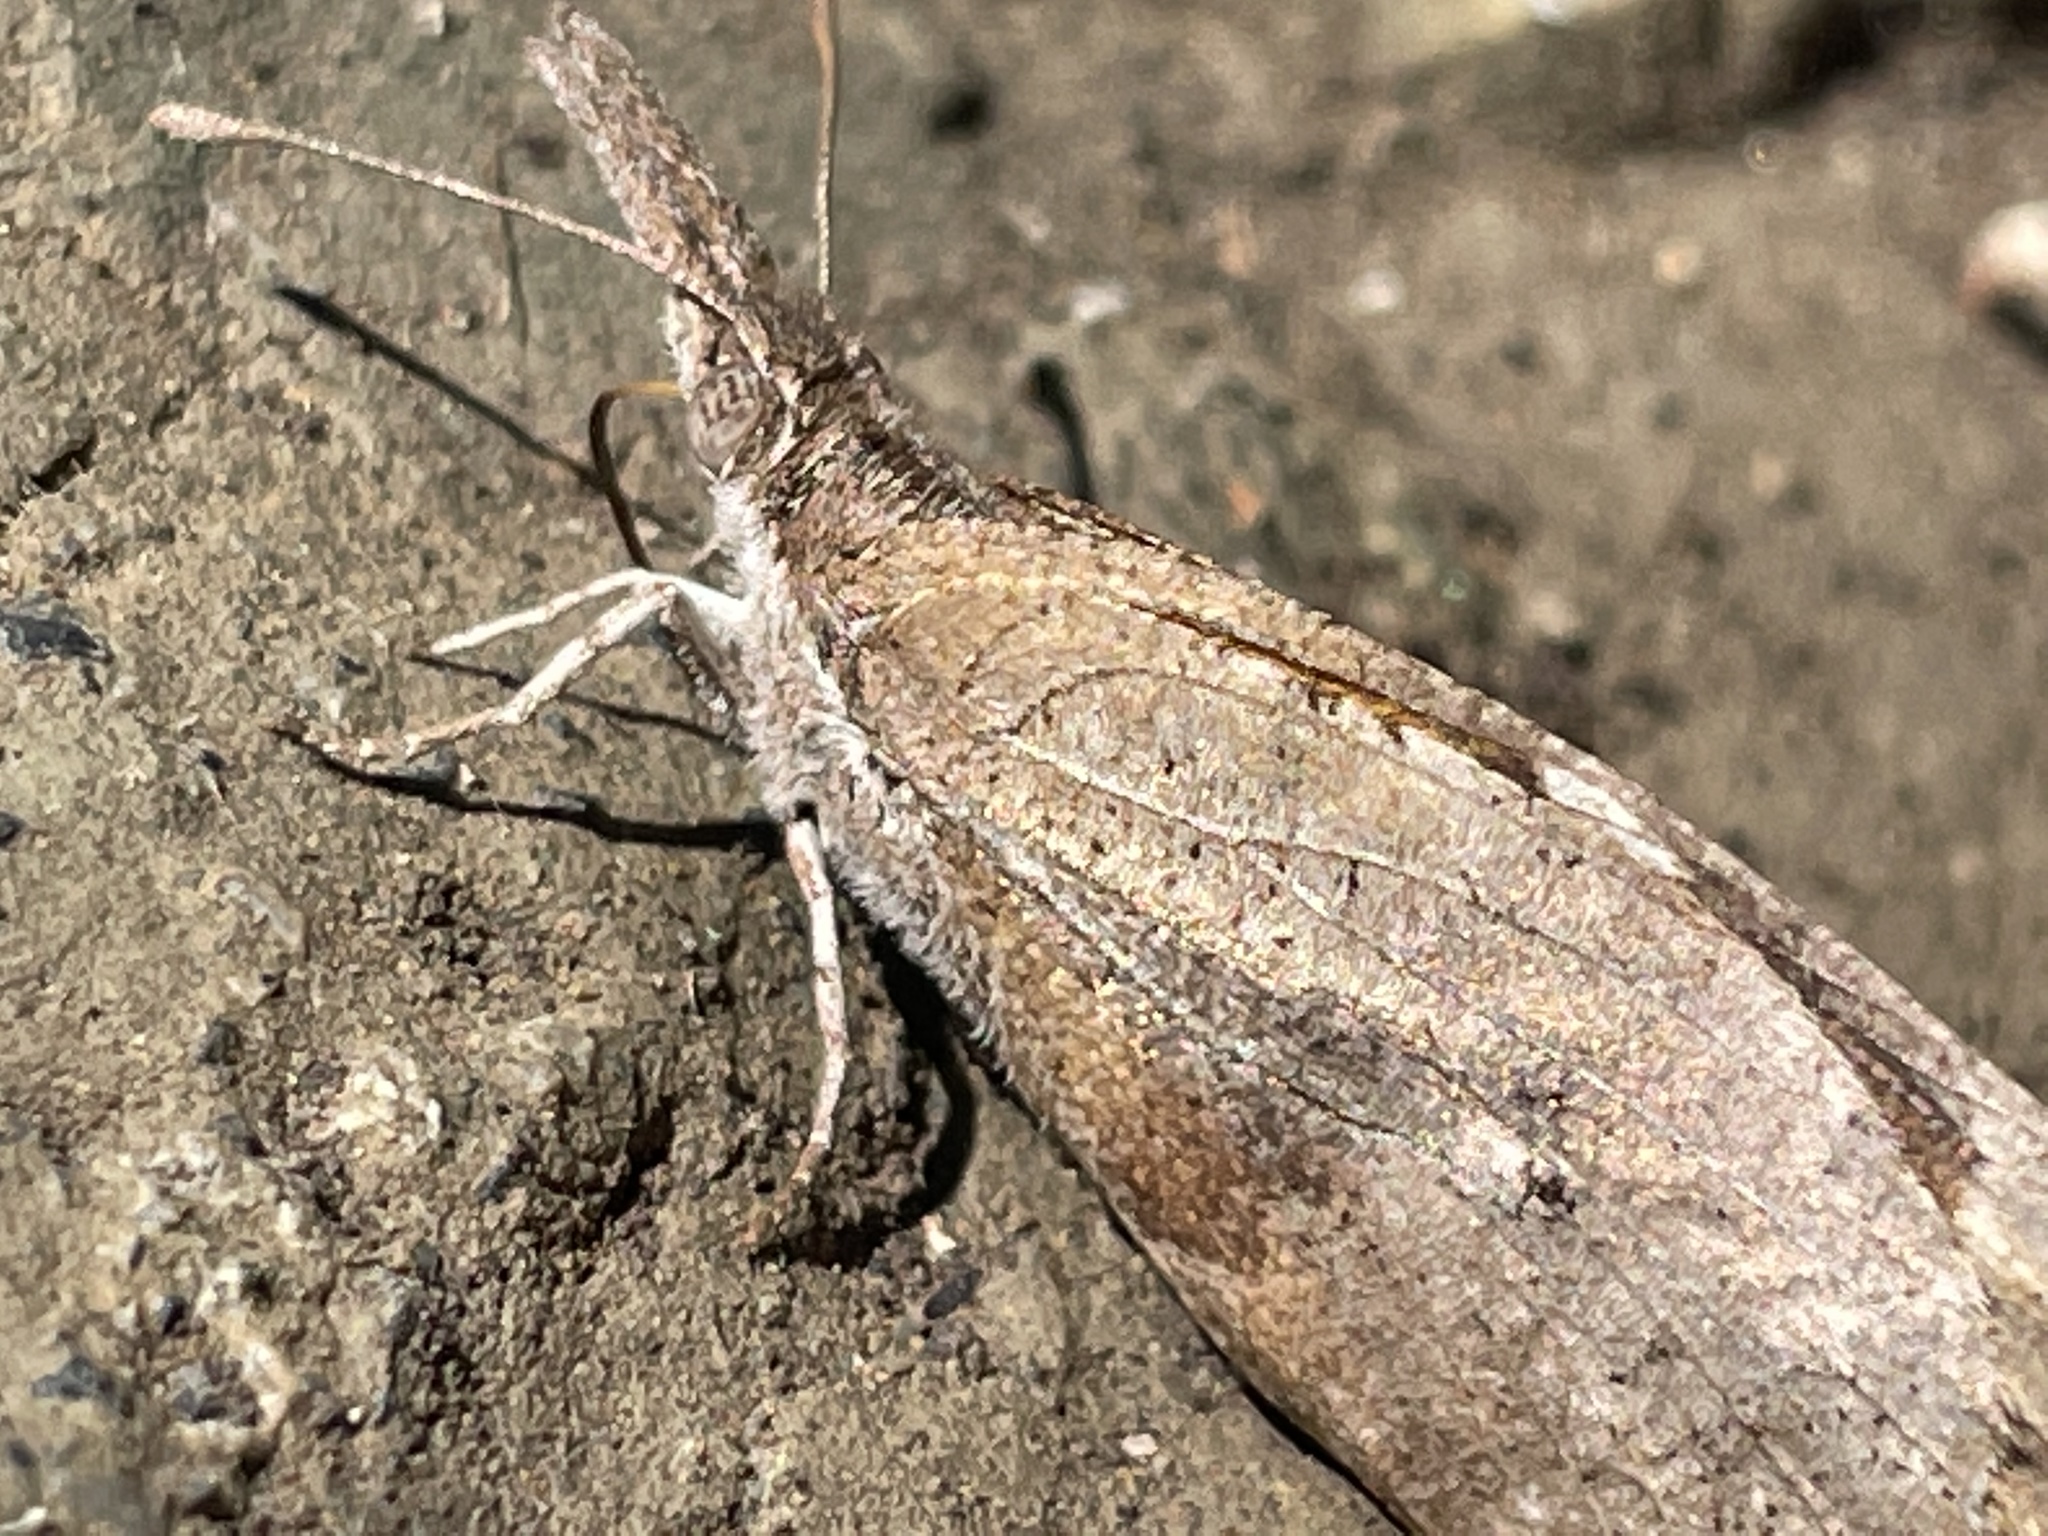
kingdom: Animalia
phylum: Arthropoda
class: Insecta
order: Lepidoptera
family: Nymphalidae
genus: Libytheana
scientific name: Libytheana carinenta
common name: American snout
